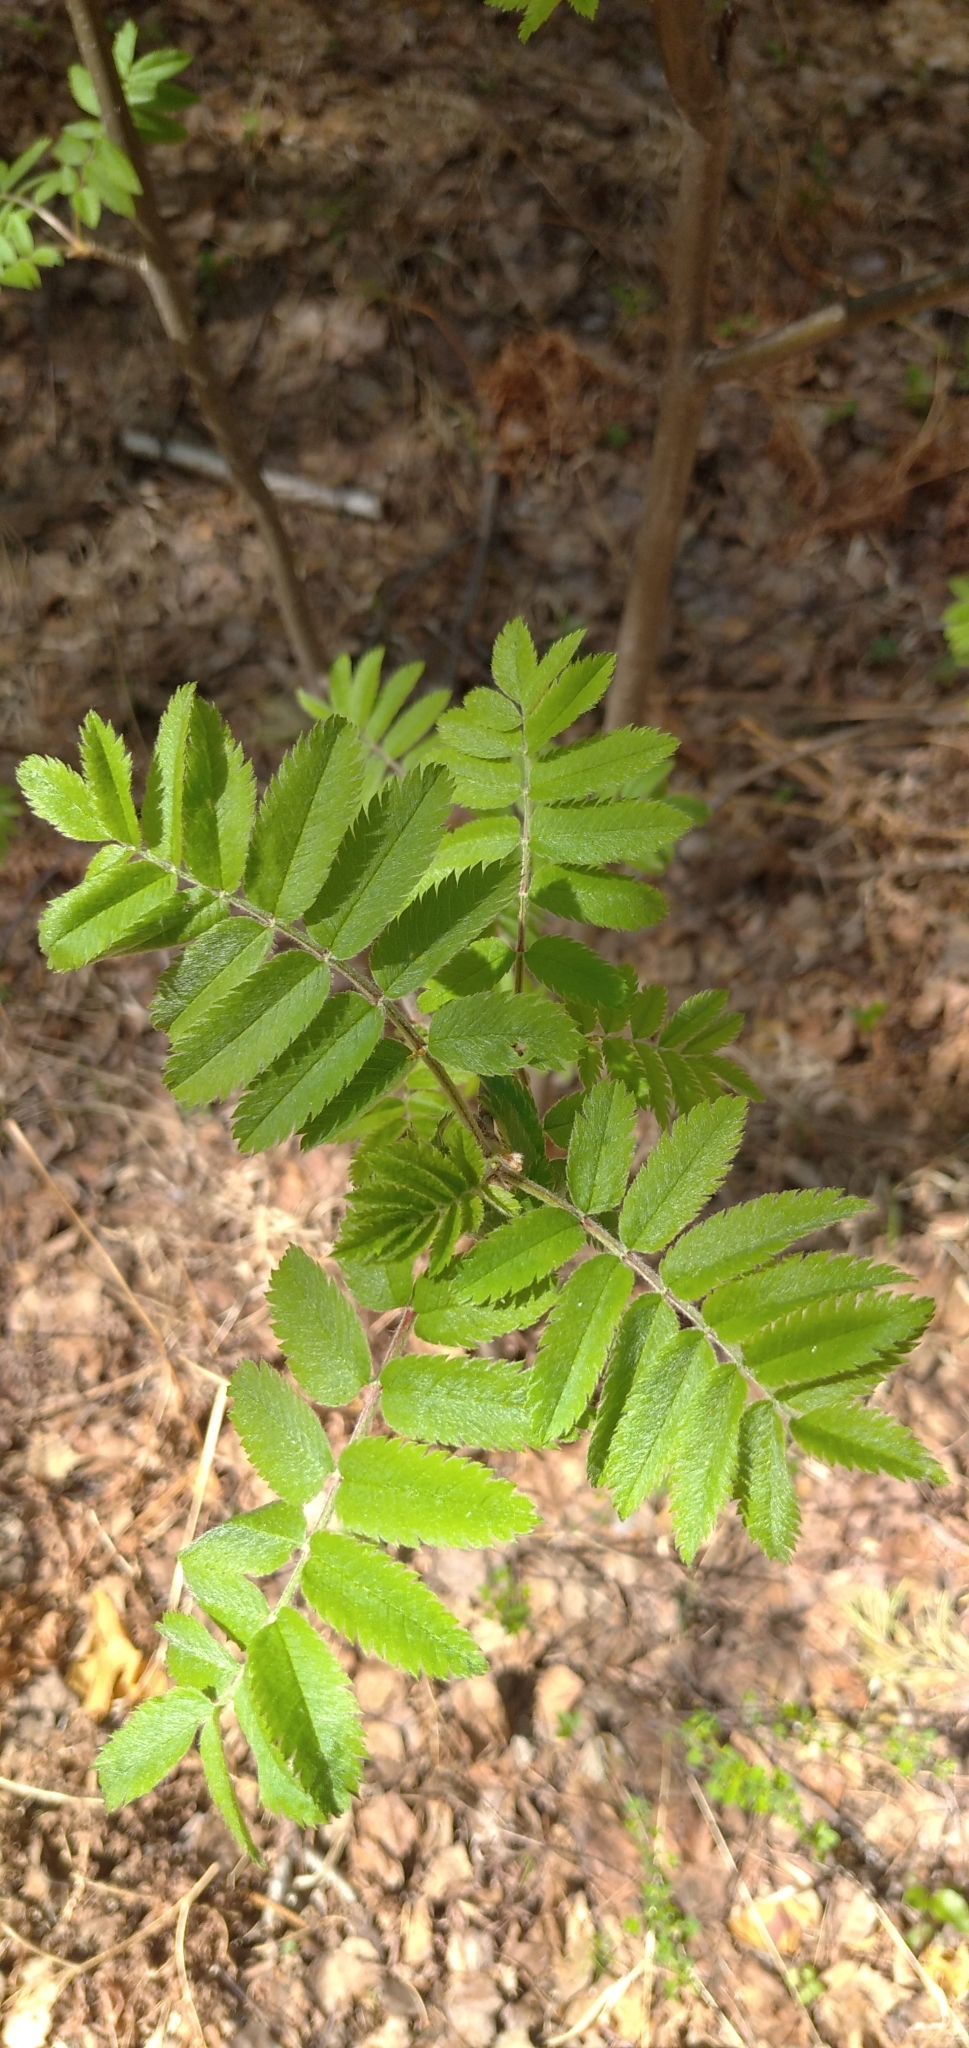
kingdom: Plantae
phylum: Tracheophyta
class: Magnoliopsida
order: Rosales
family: Rosaceae
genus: Sorbus
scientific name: Sorbus aucuparia
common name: Rowan
